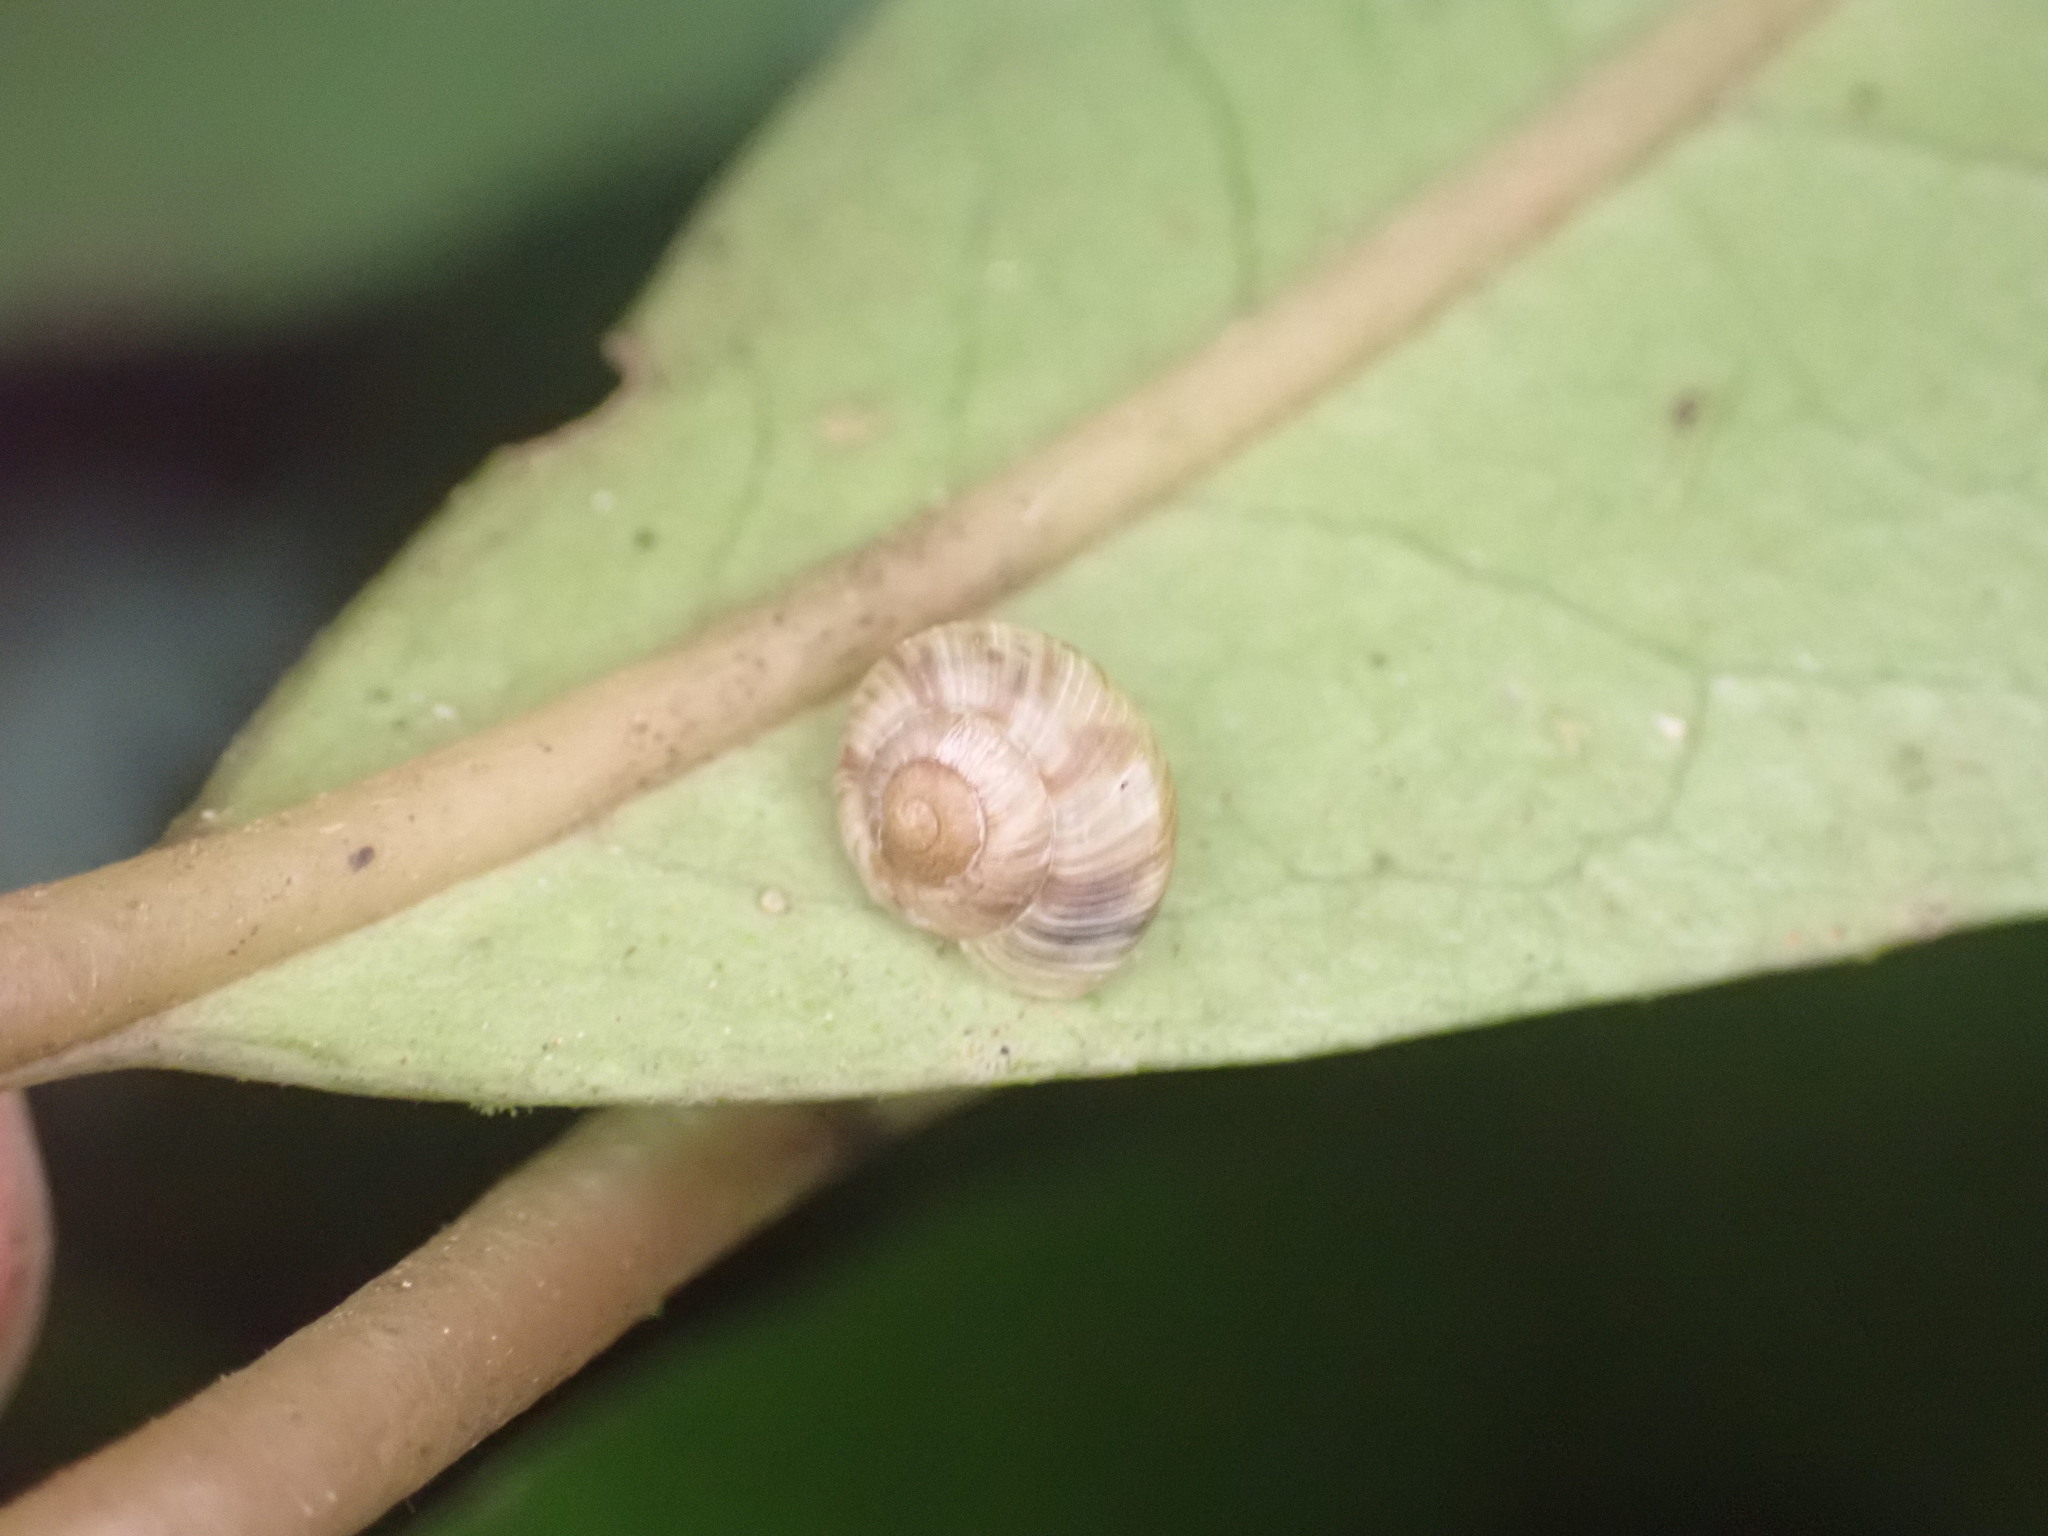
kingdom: Animalia
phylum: Mollusca
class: Gastropoda
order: Stylommatophora
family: Charopidae
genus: Serpho
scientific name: Serpho
